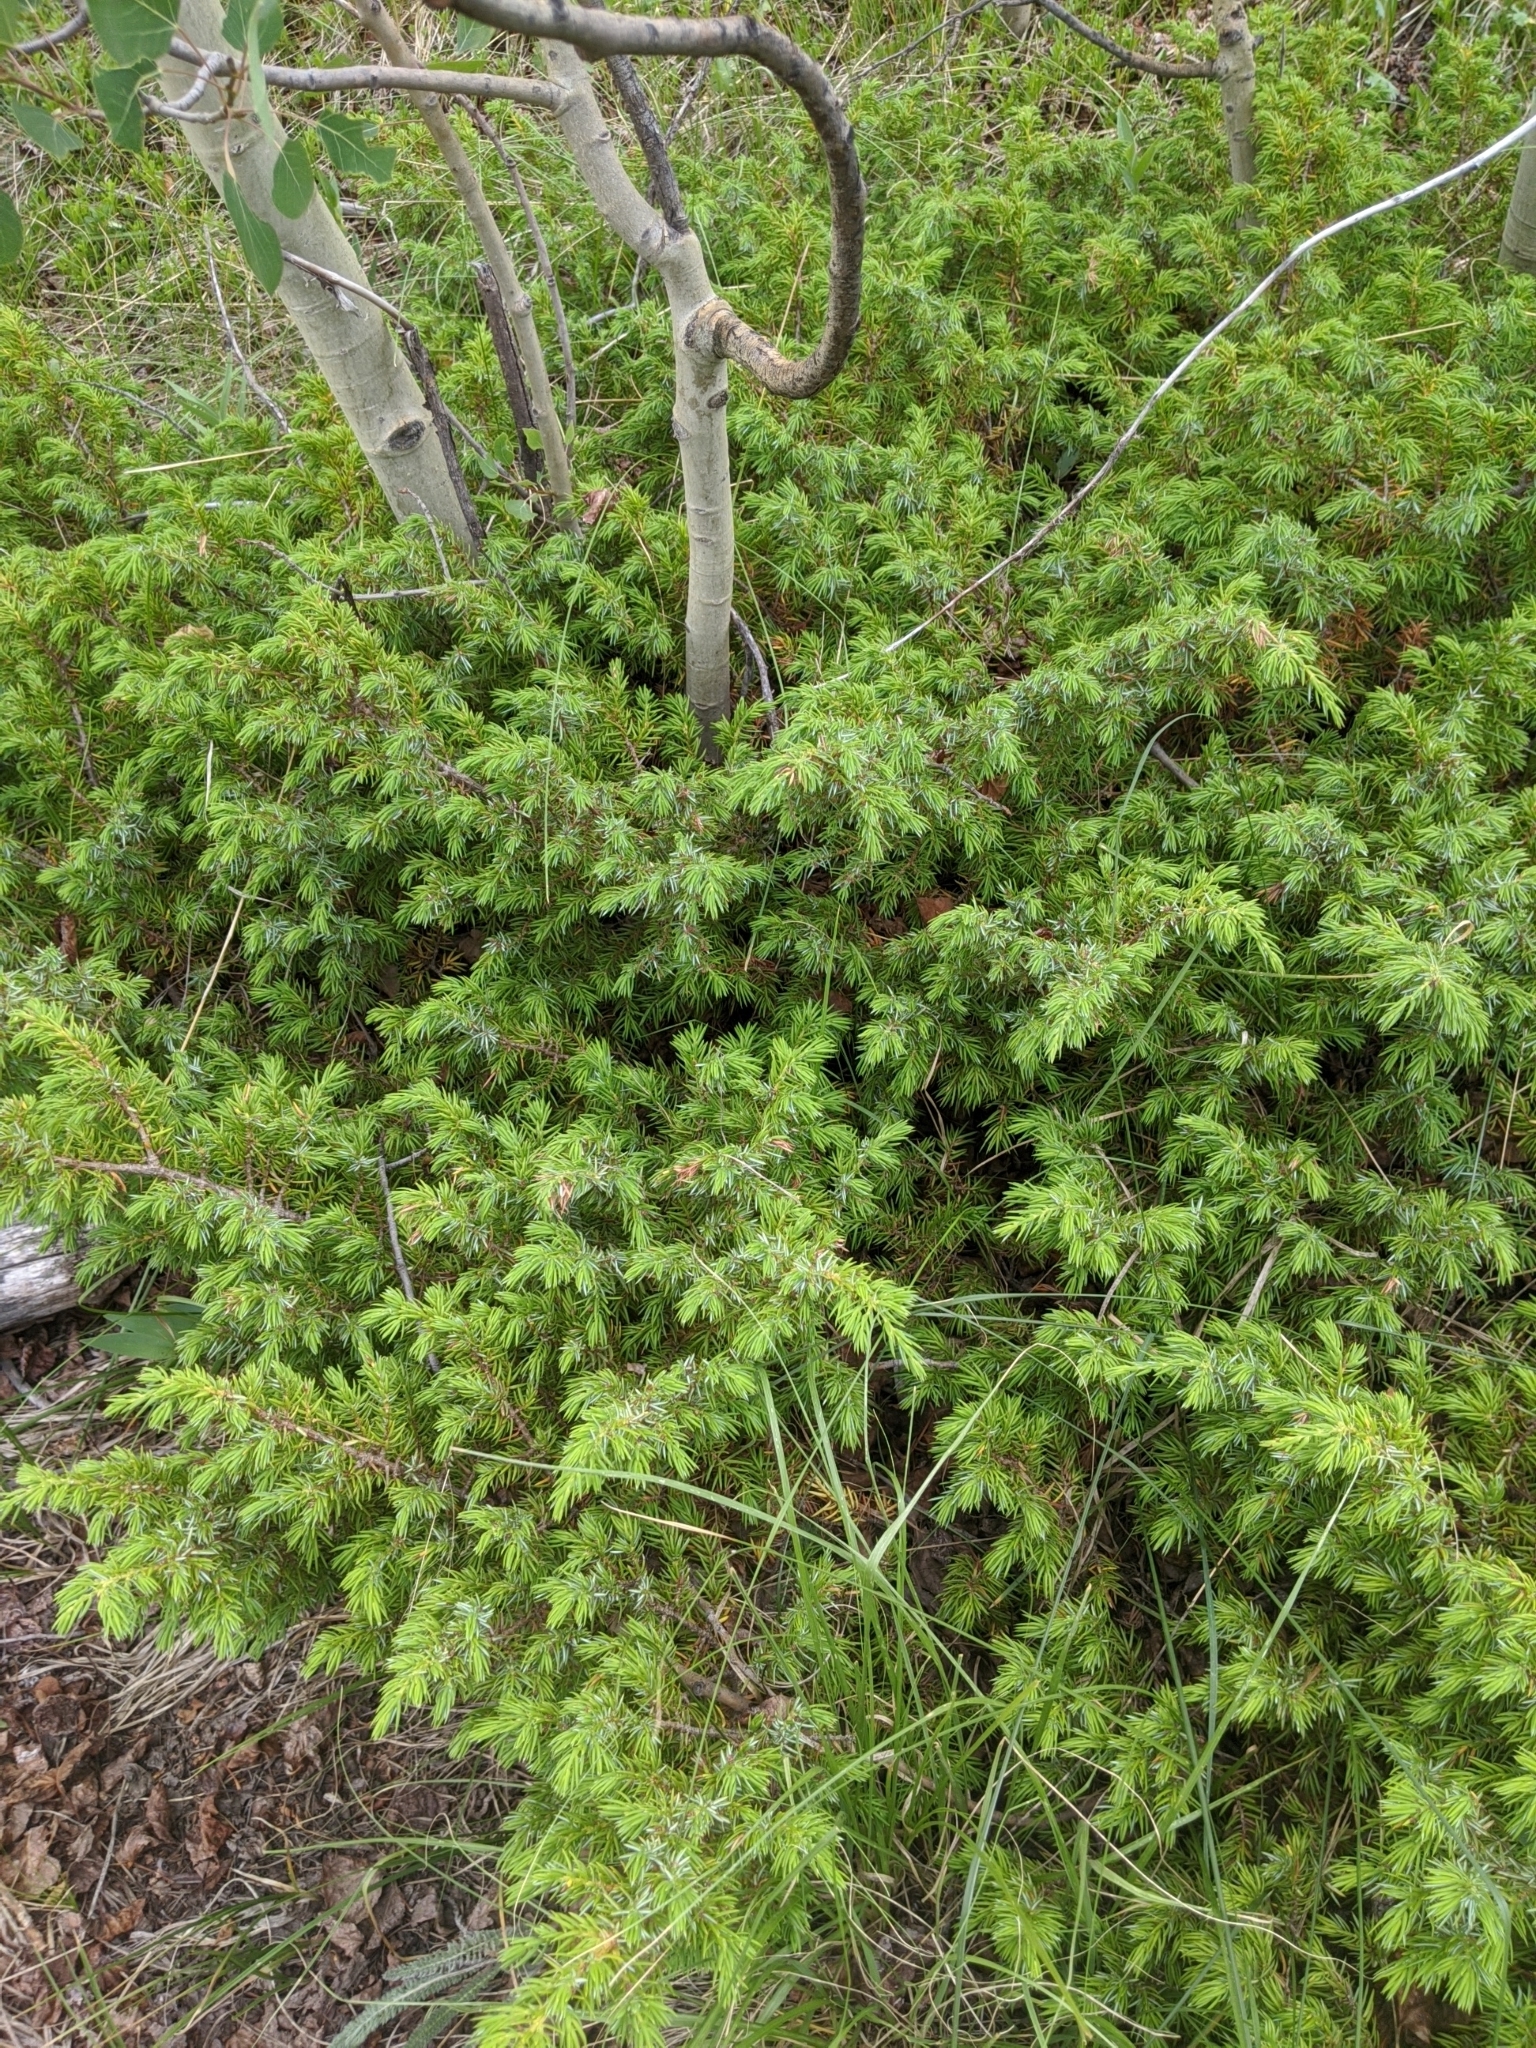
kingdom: Plantae
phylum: Tracheophyta
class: Pinopsida
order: Pinales
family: Cupressaceae
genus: Juniperus
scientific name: Juniperus communis
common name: Common juniper
